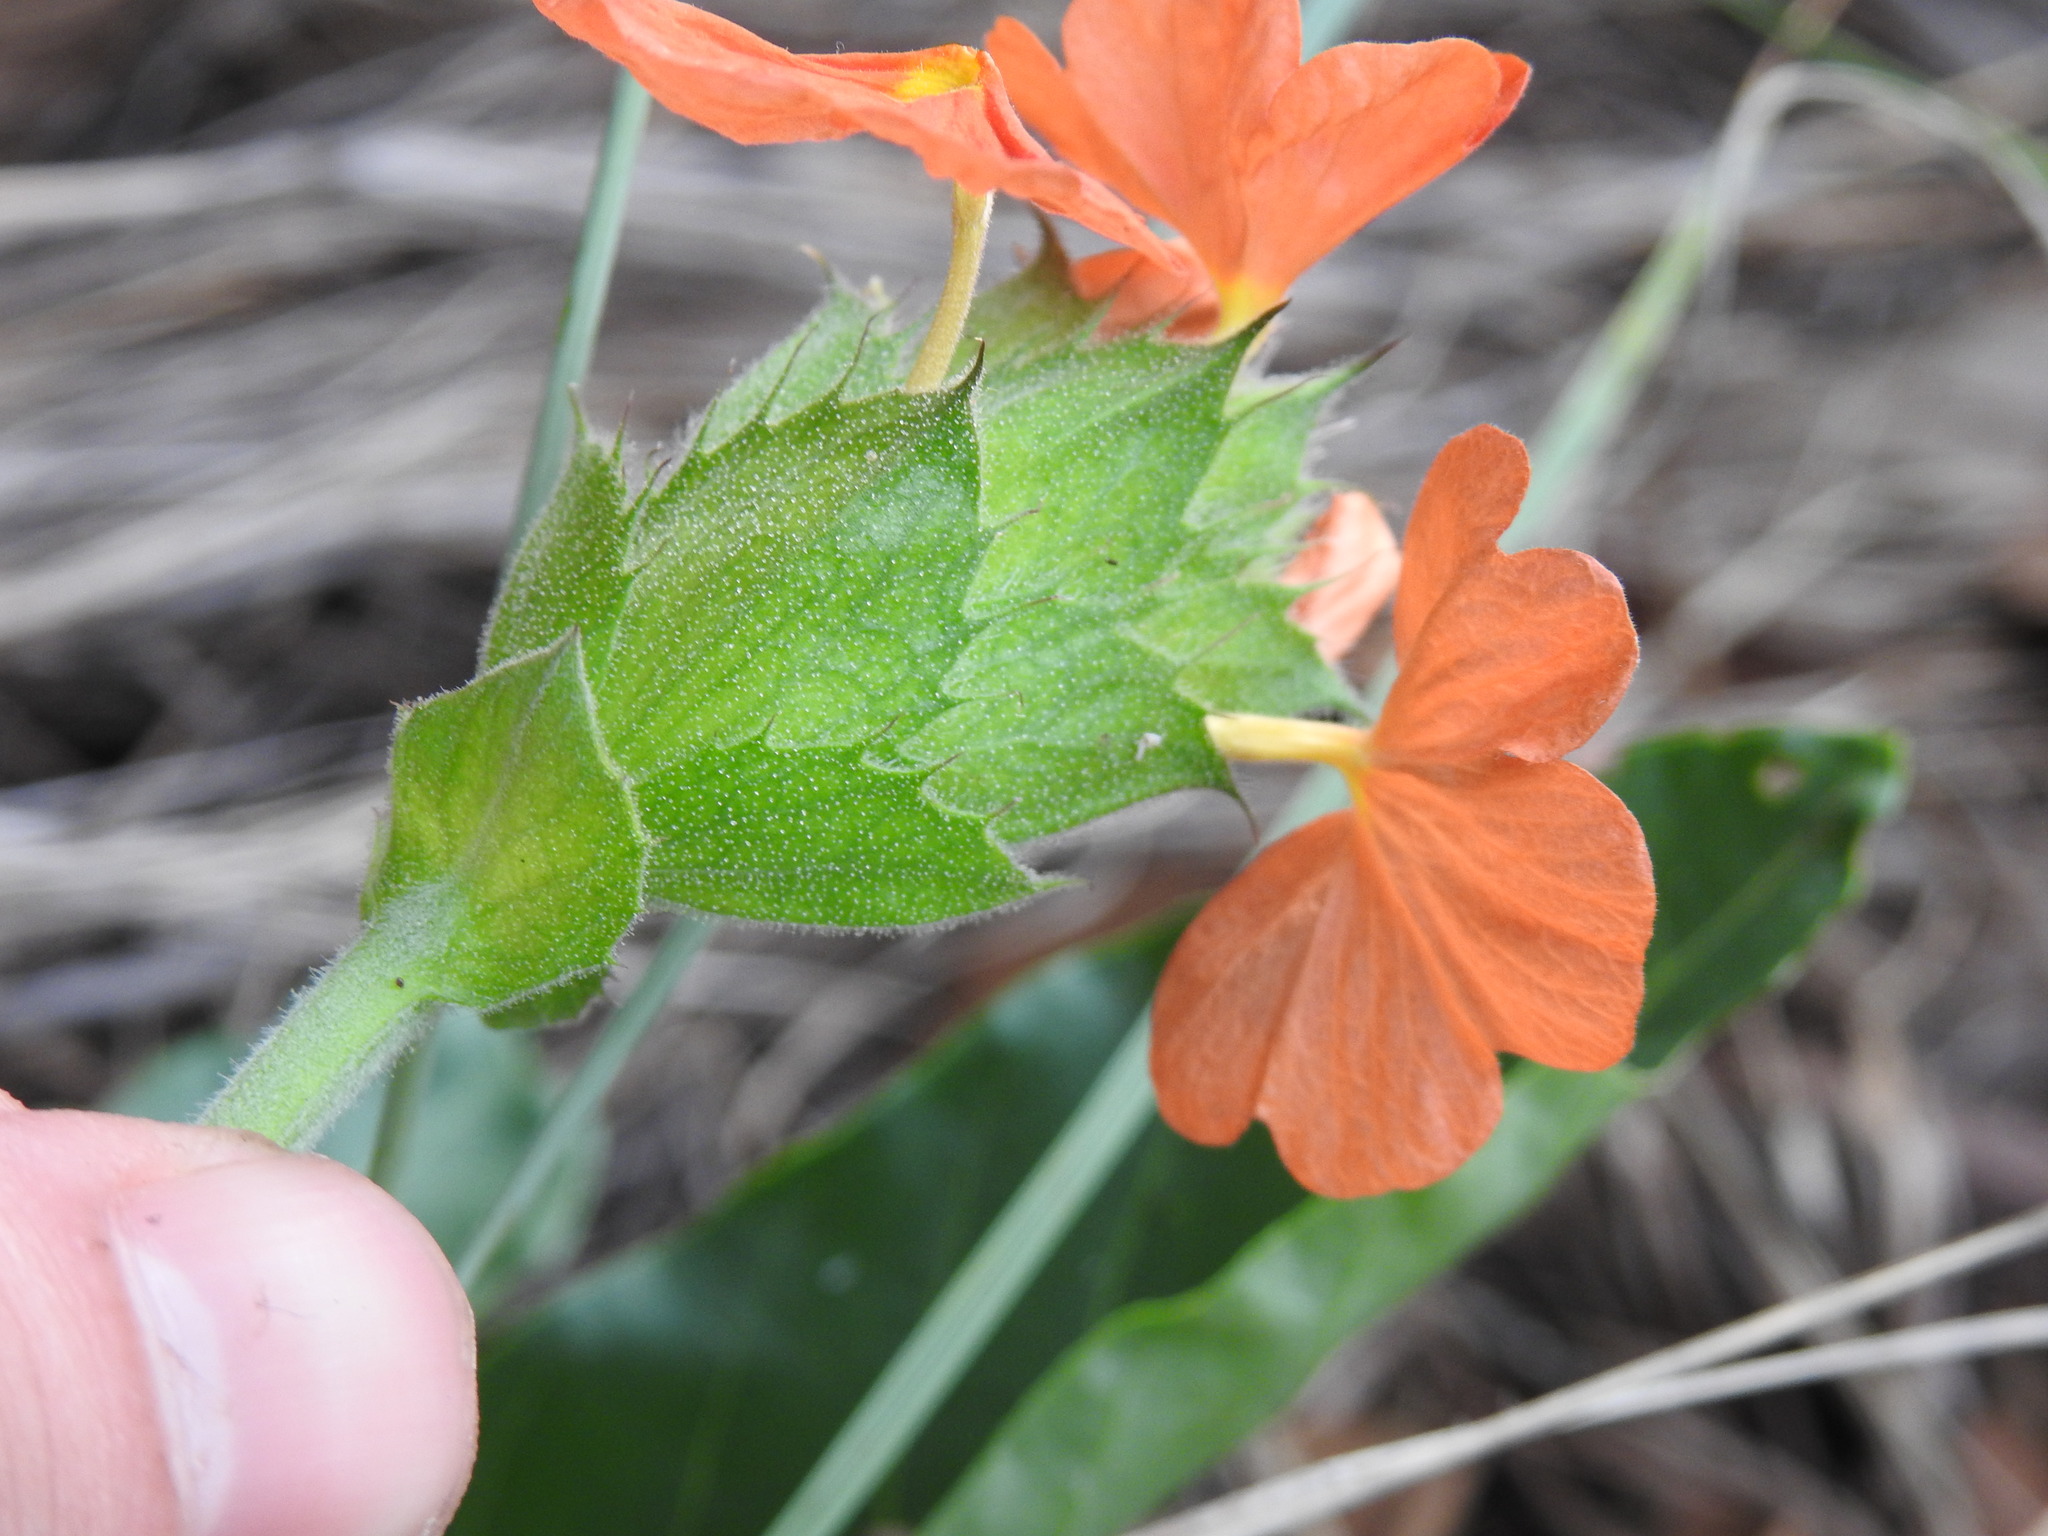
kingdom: Plantae
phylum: Tracheophyta
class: Magnoliopsida
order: Lamiales
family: Acanthaceae
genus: Crossandra
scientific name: Crossandra greenstockii
